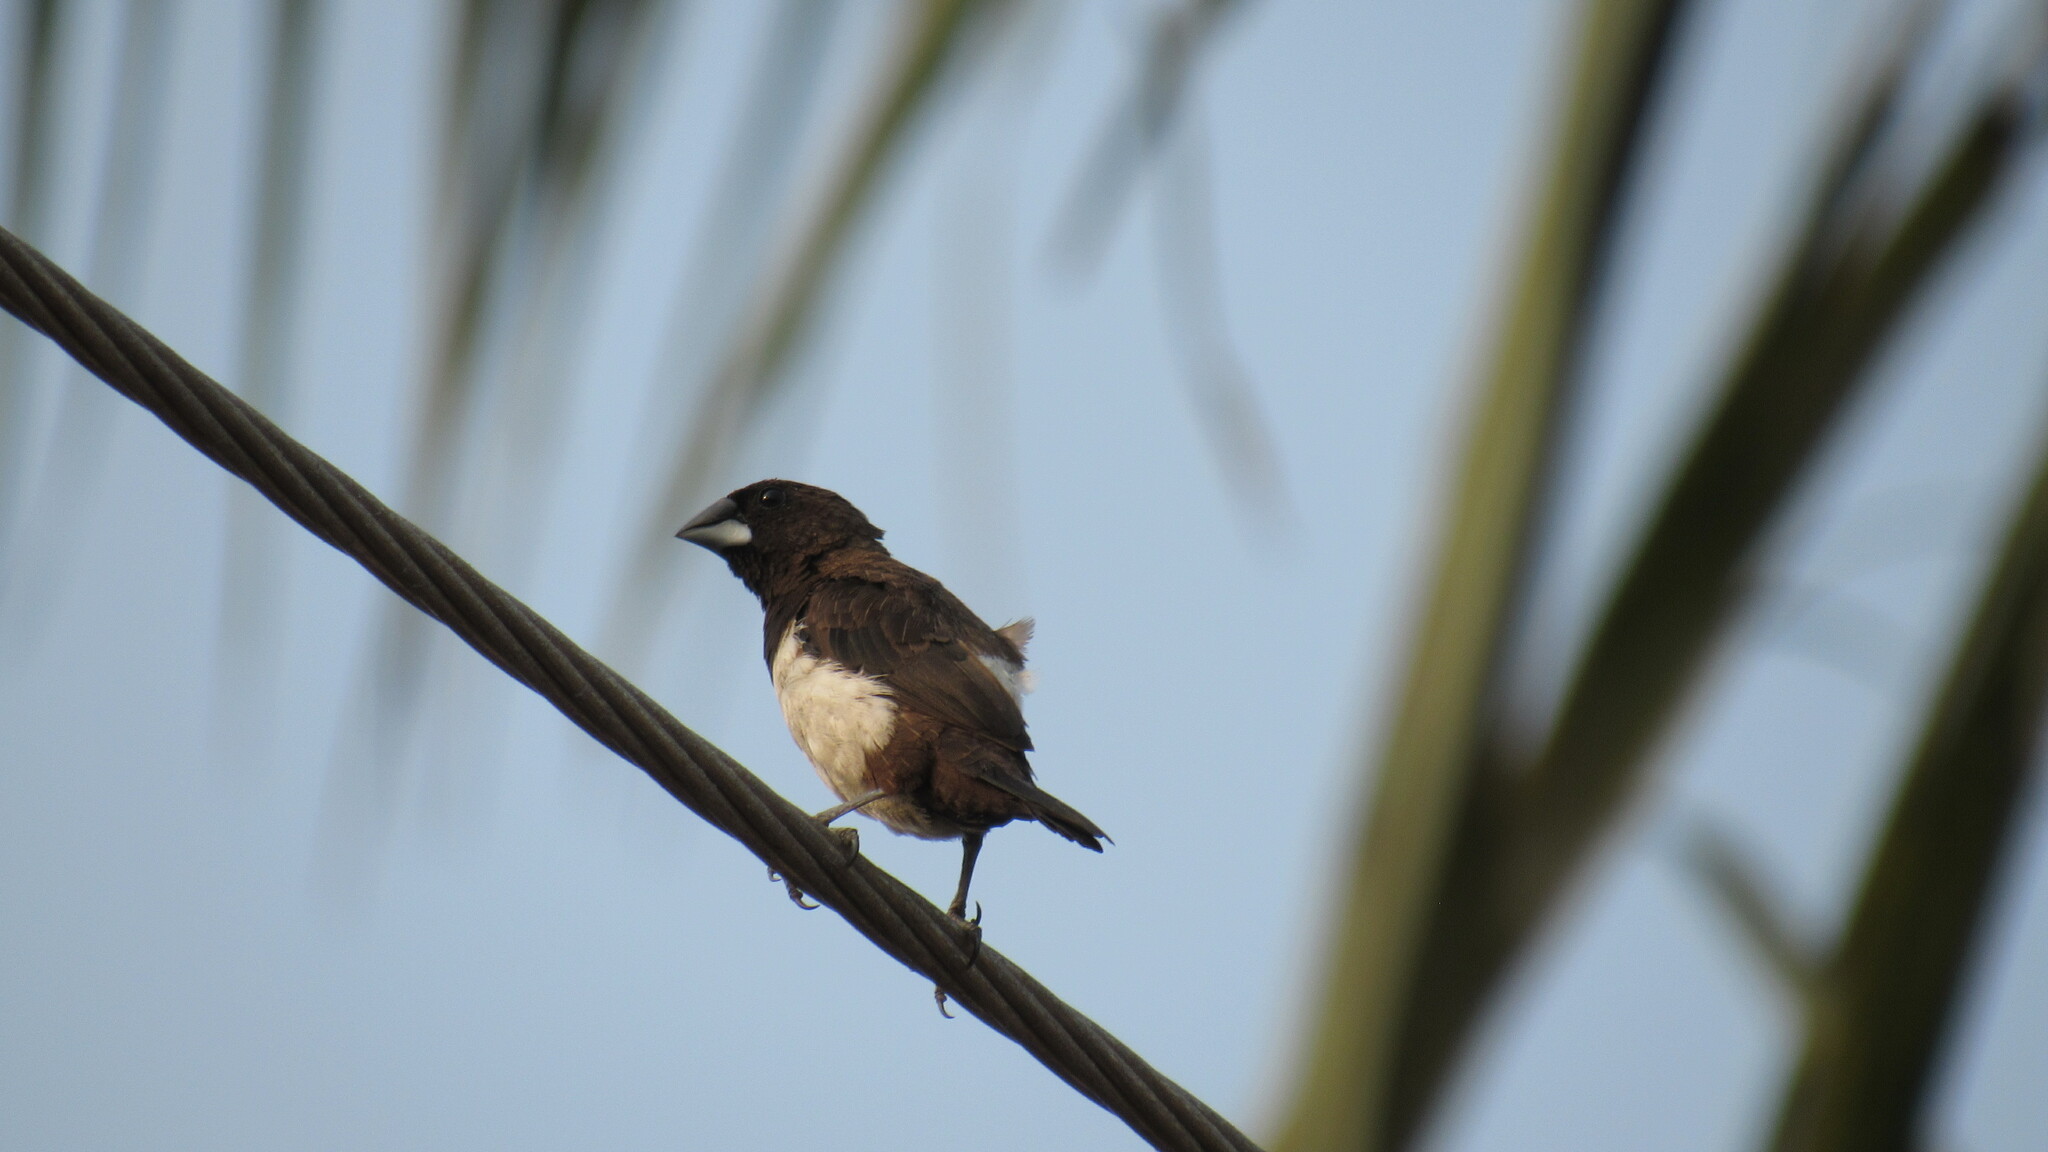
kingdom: Animalia
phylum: Chordata
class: Aves
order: Passeriformes
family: Estrildidae
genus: Lonchura
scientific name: Lonchura striata
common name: White-rumped munia
